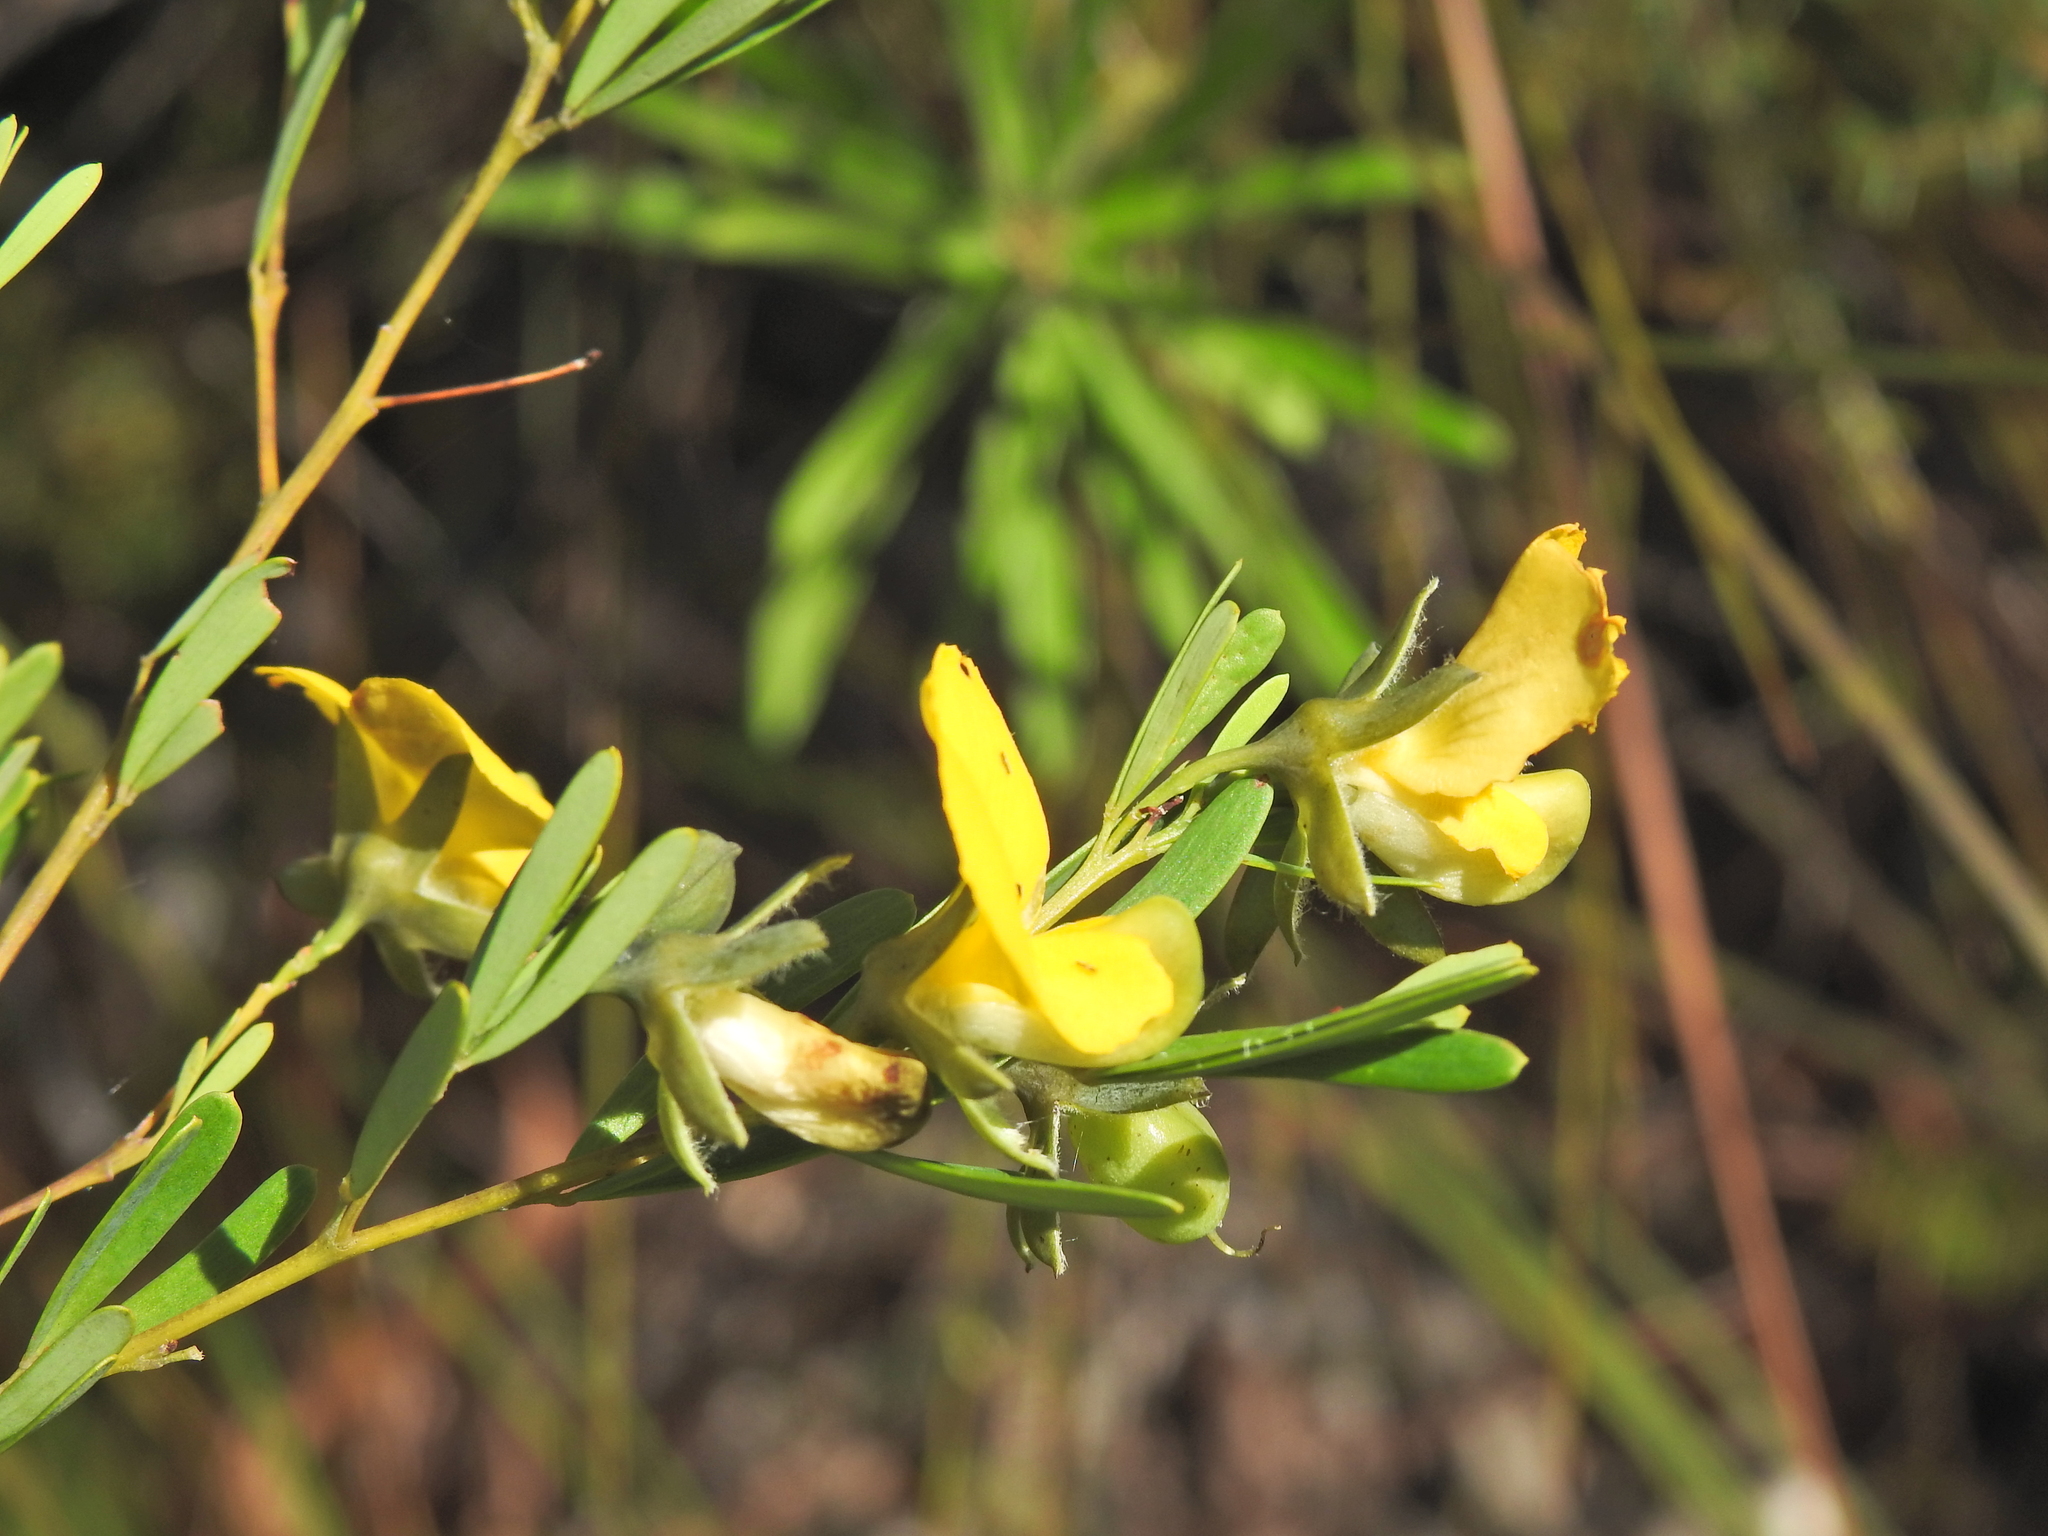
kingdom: Plantae
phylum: Tracheophyta
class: Magnoliopsida
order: Fabales
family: Fabaceae
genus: Gompholobium
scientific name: Gompholobium virgatum
